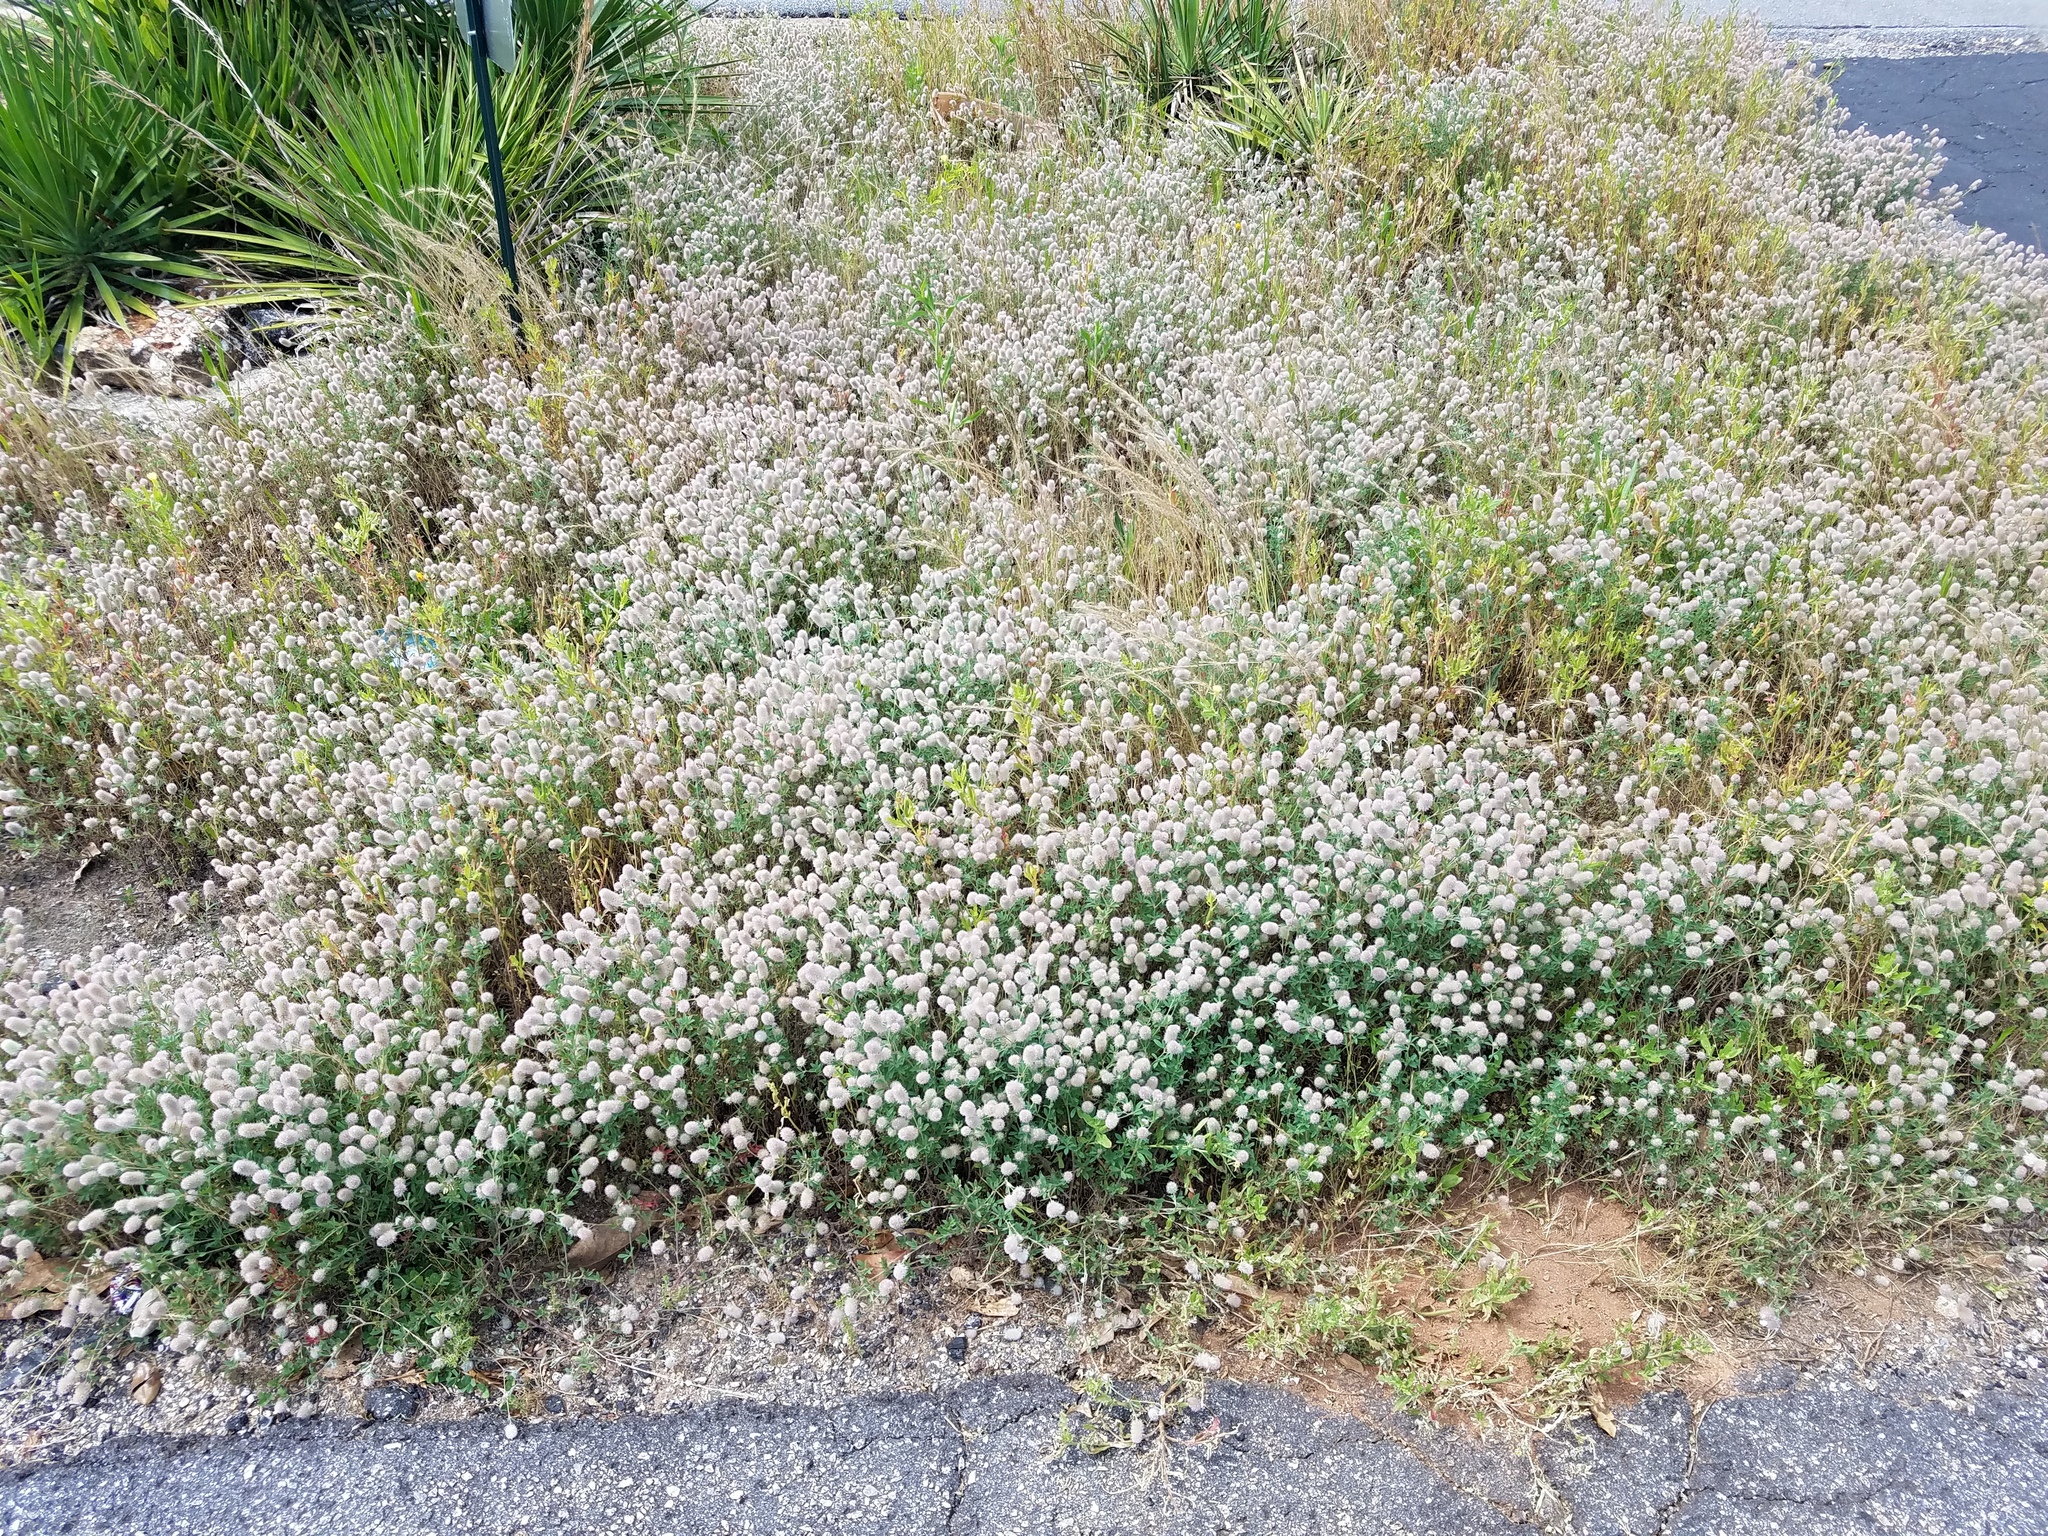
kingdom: Plantae
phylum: Tracheophyta
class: Magnoliopsida
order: Fabales
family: Fabaceae
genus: Trifolium
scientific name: Trifolium arvense
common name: Hare's-foot clover
